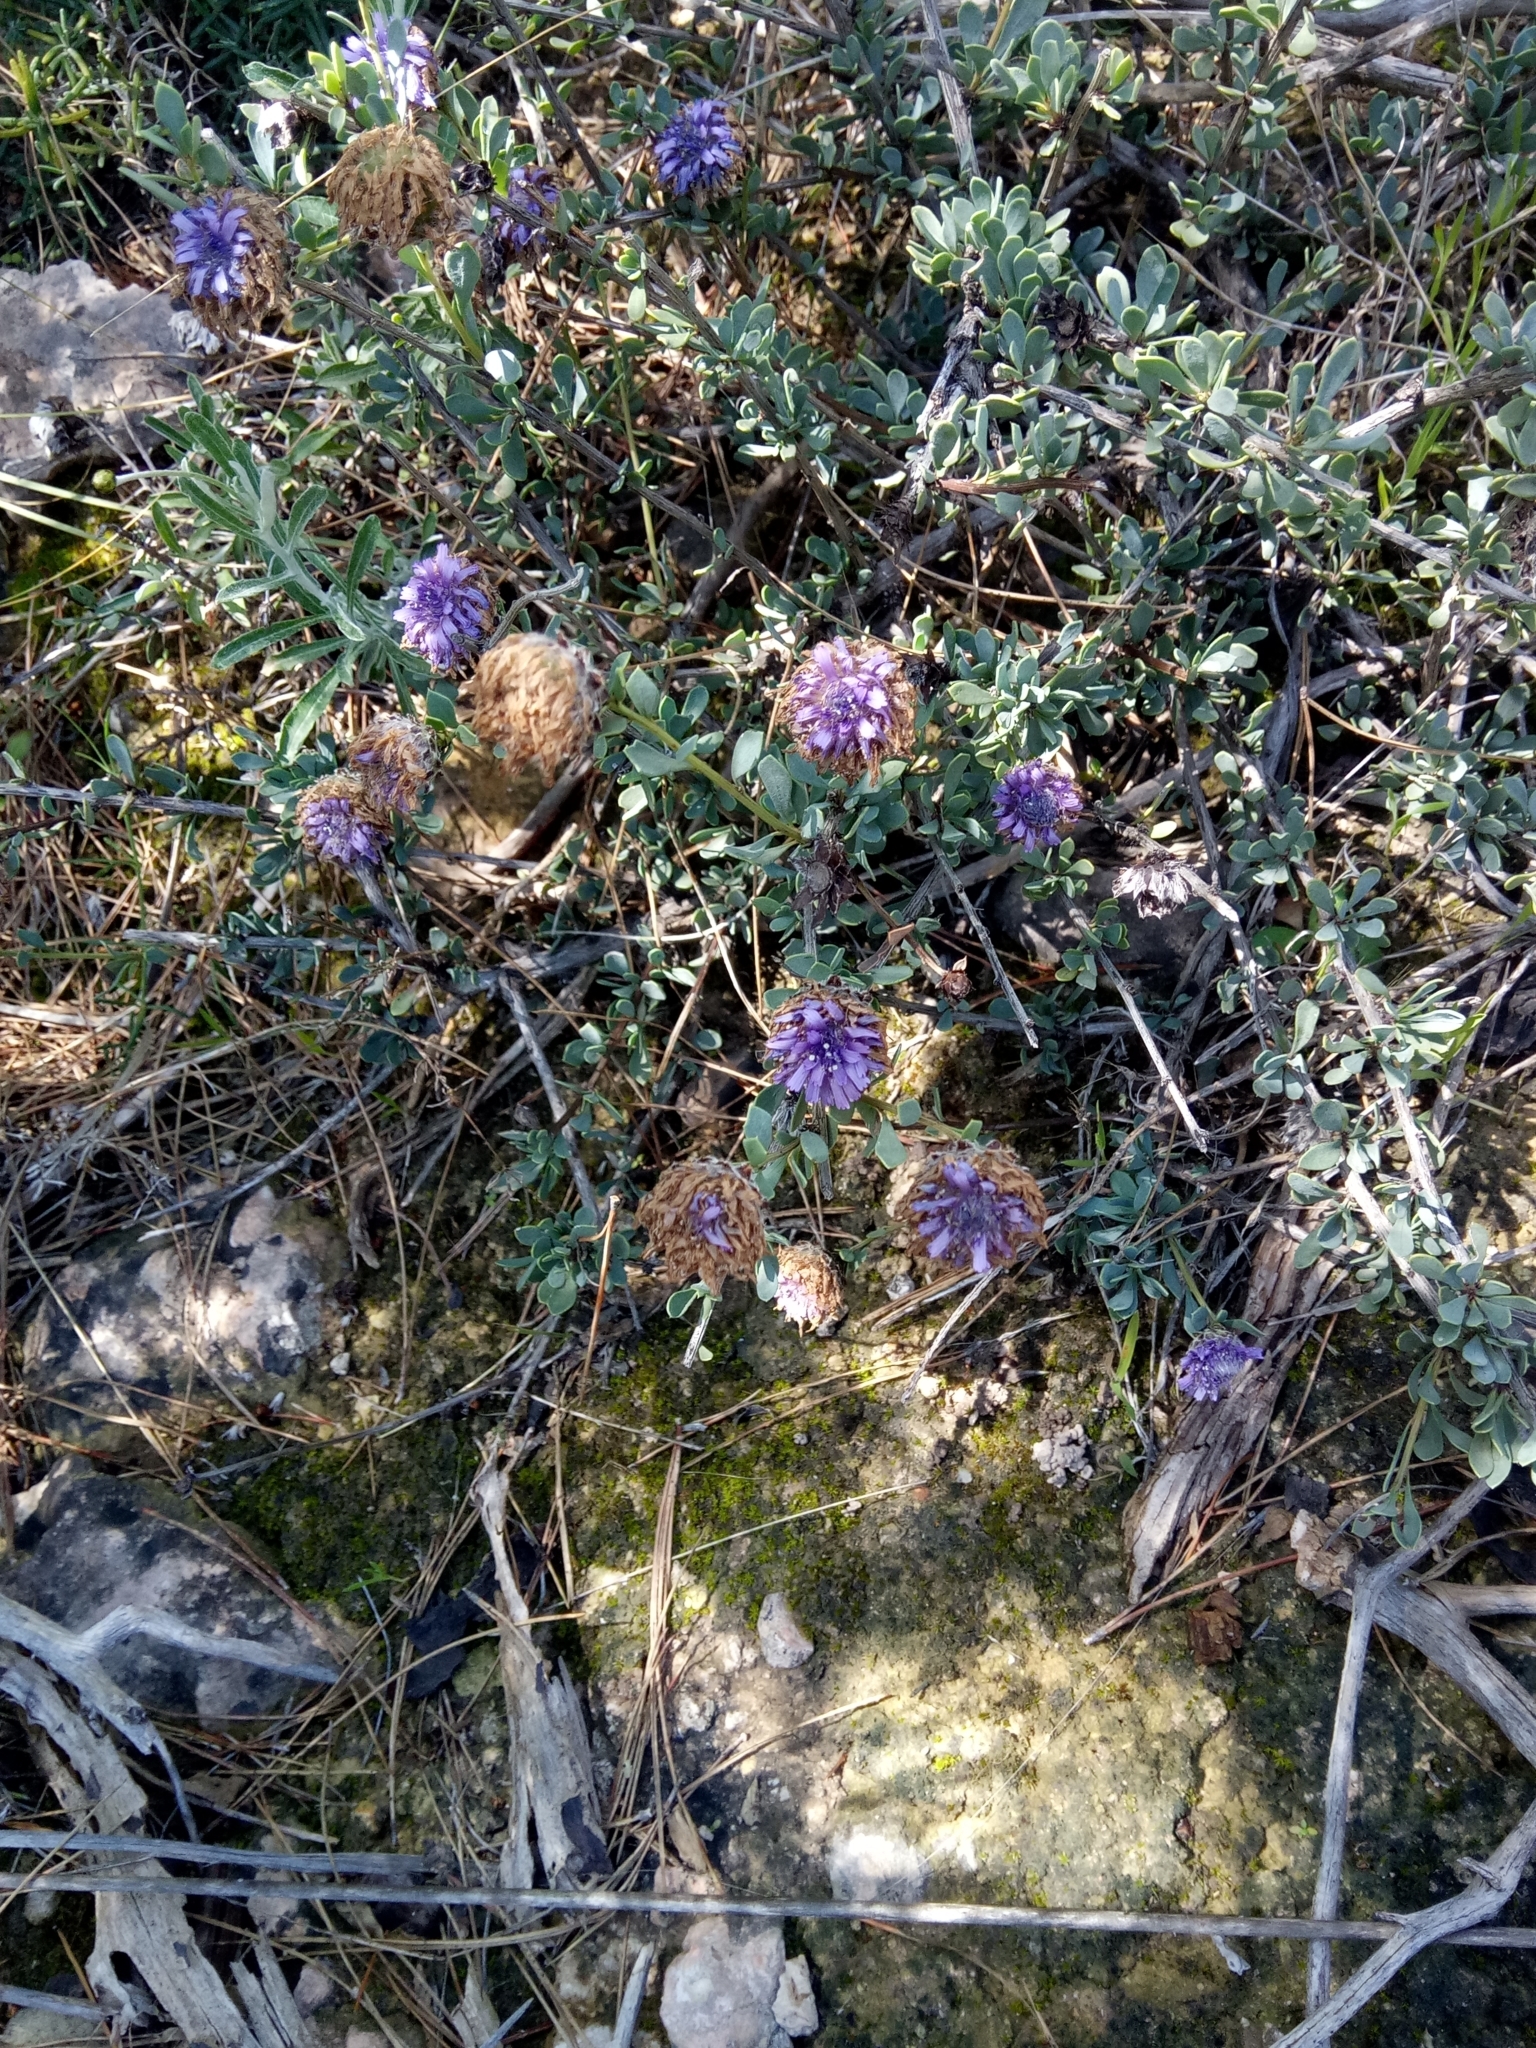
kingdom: Plantae
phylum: Tracheophyta
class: Magnoliopsida
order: Lamiales
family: Plantaginaceae
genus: Globularia
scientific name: Globularia alypum
